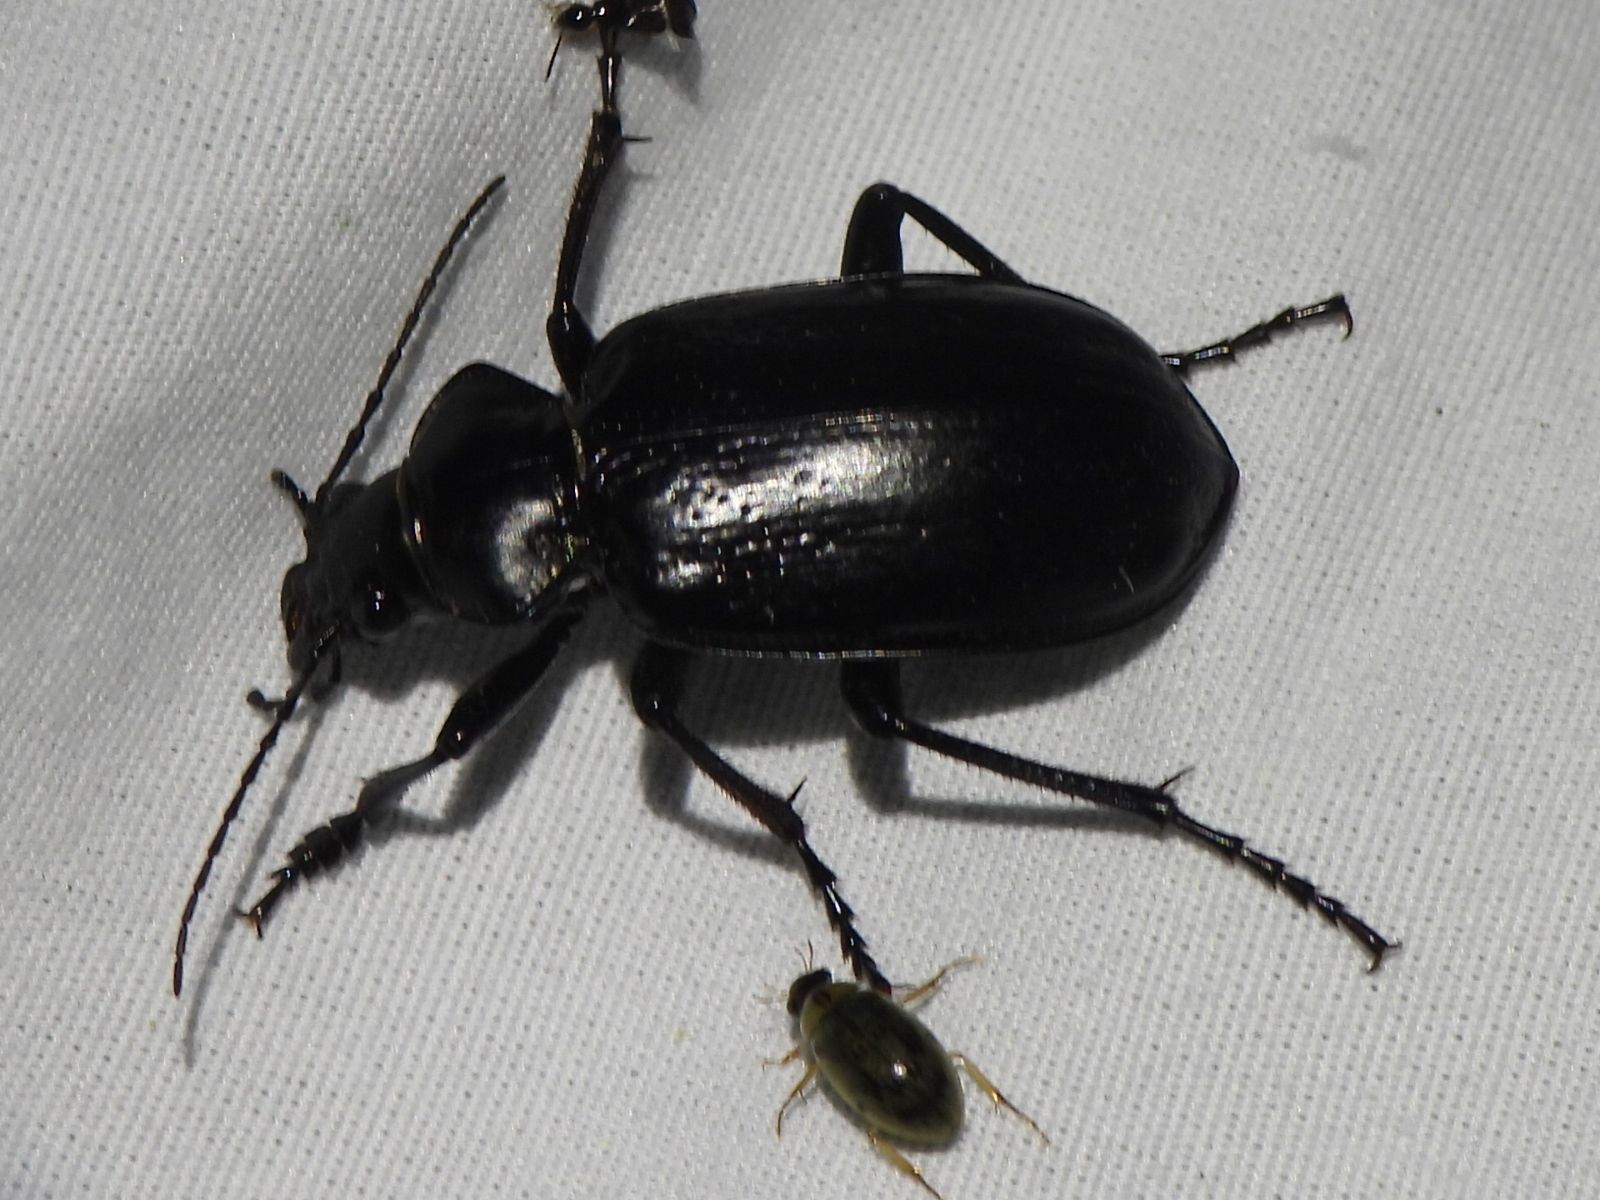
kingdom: Animalia
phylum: Arthropoda
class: Insecta
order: Coleoptera
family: Carabidae
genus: Calosoma
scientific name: Calosoma marginale
